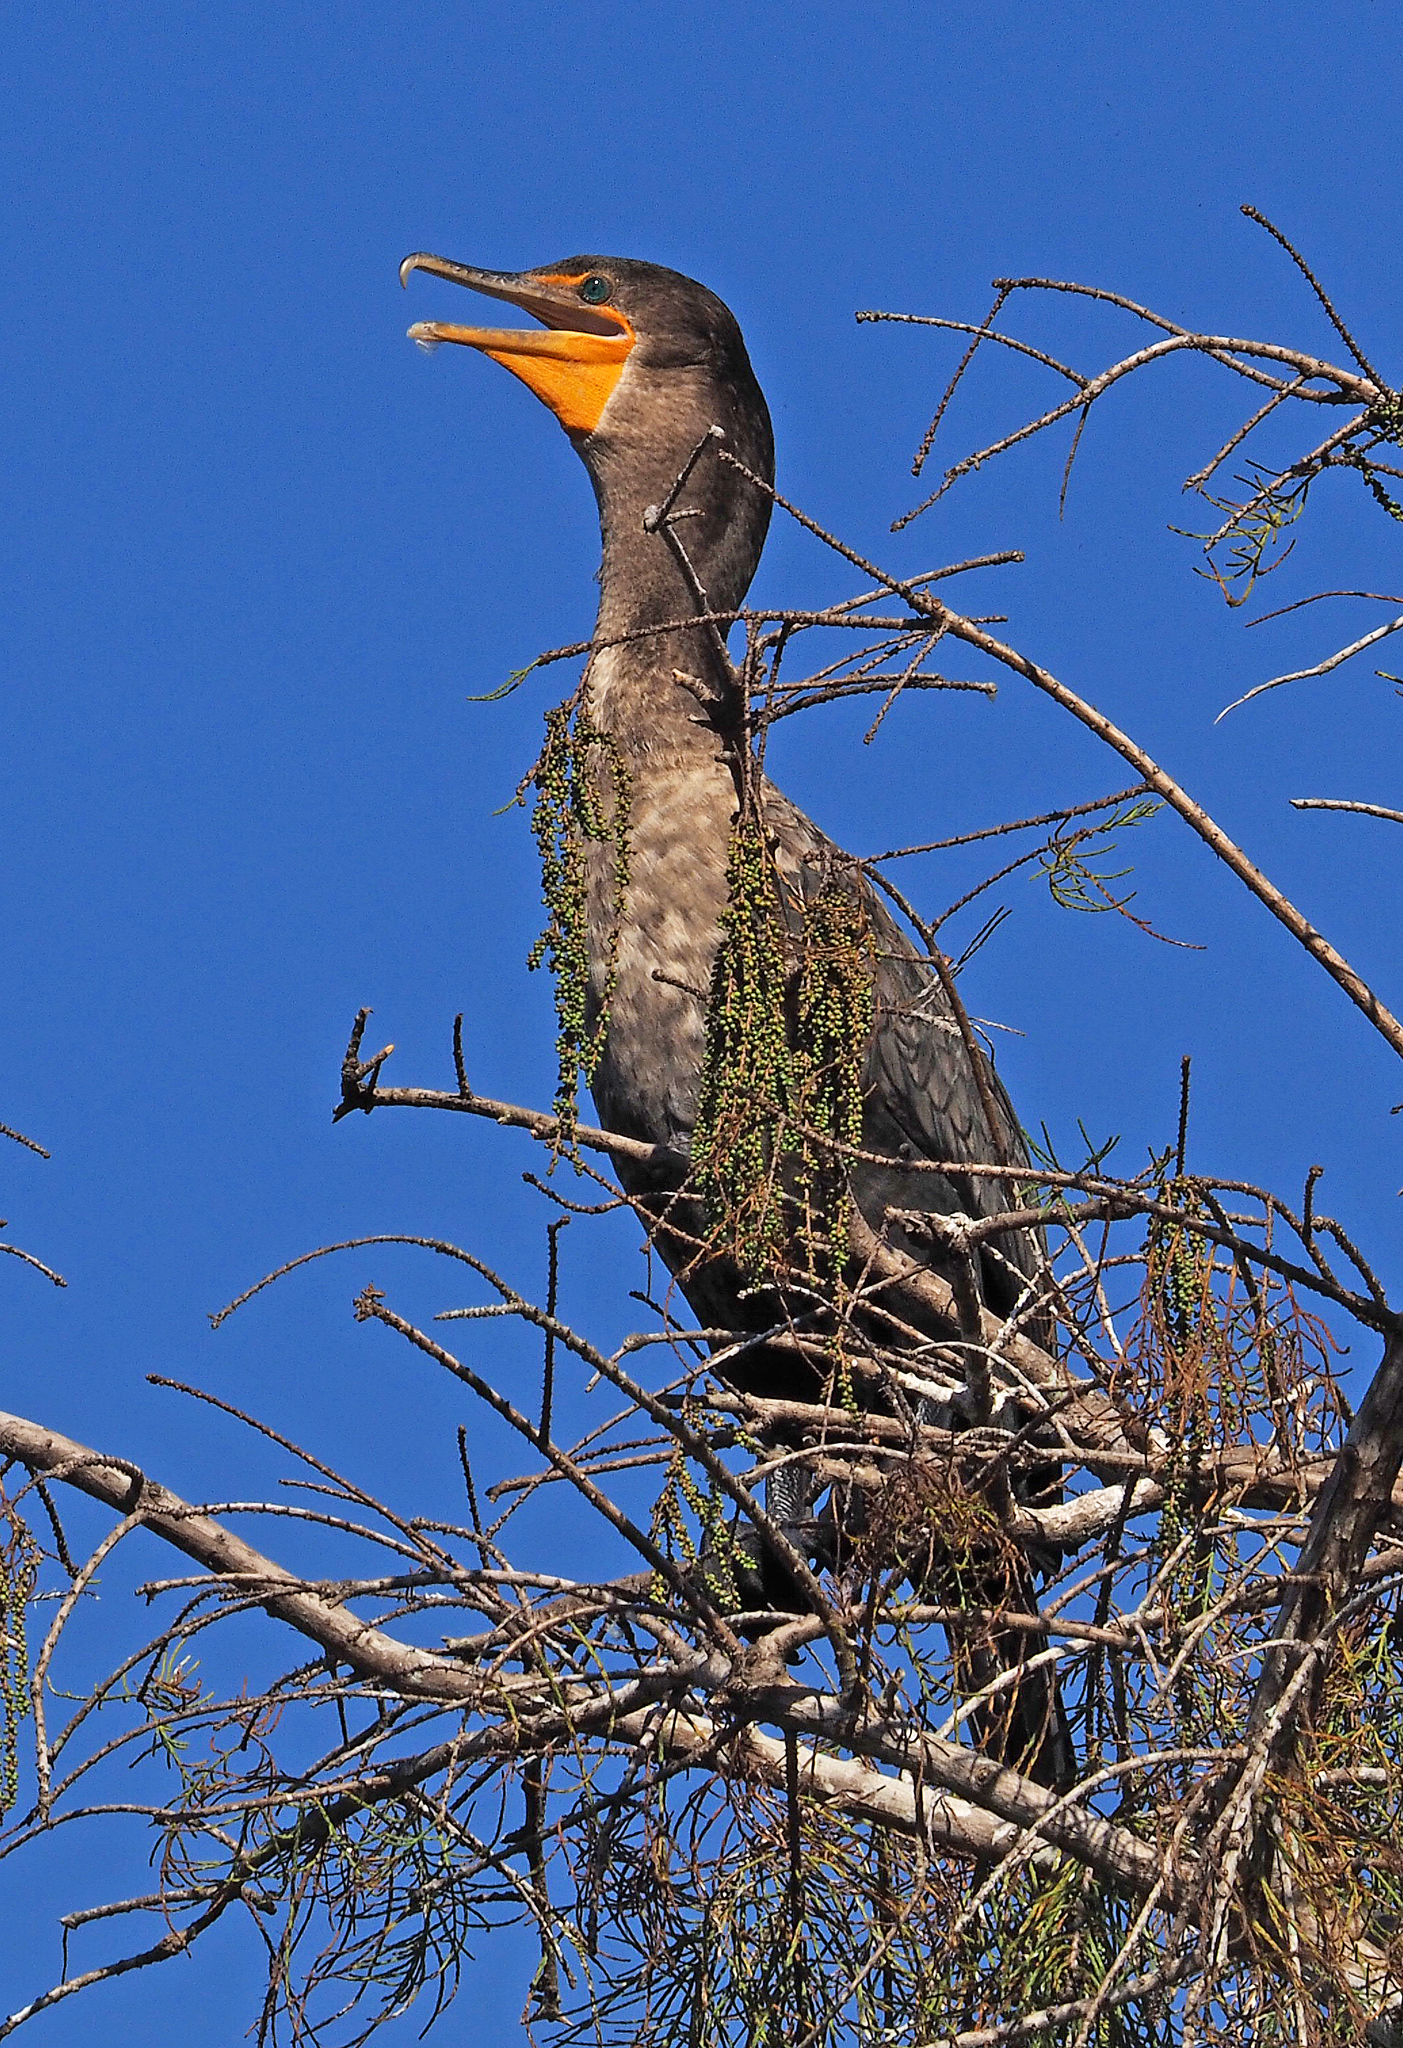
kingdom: Animalia
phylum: Chordata
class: Aves
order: Suliformes
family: Phalacrocoracidae
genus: Phalacrocorax
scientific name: Phalacrocorax auritus
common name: Double-crested cormorant
